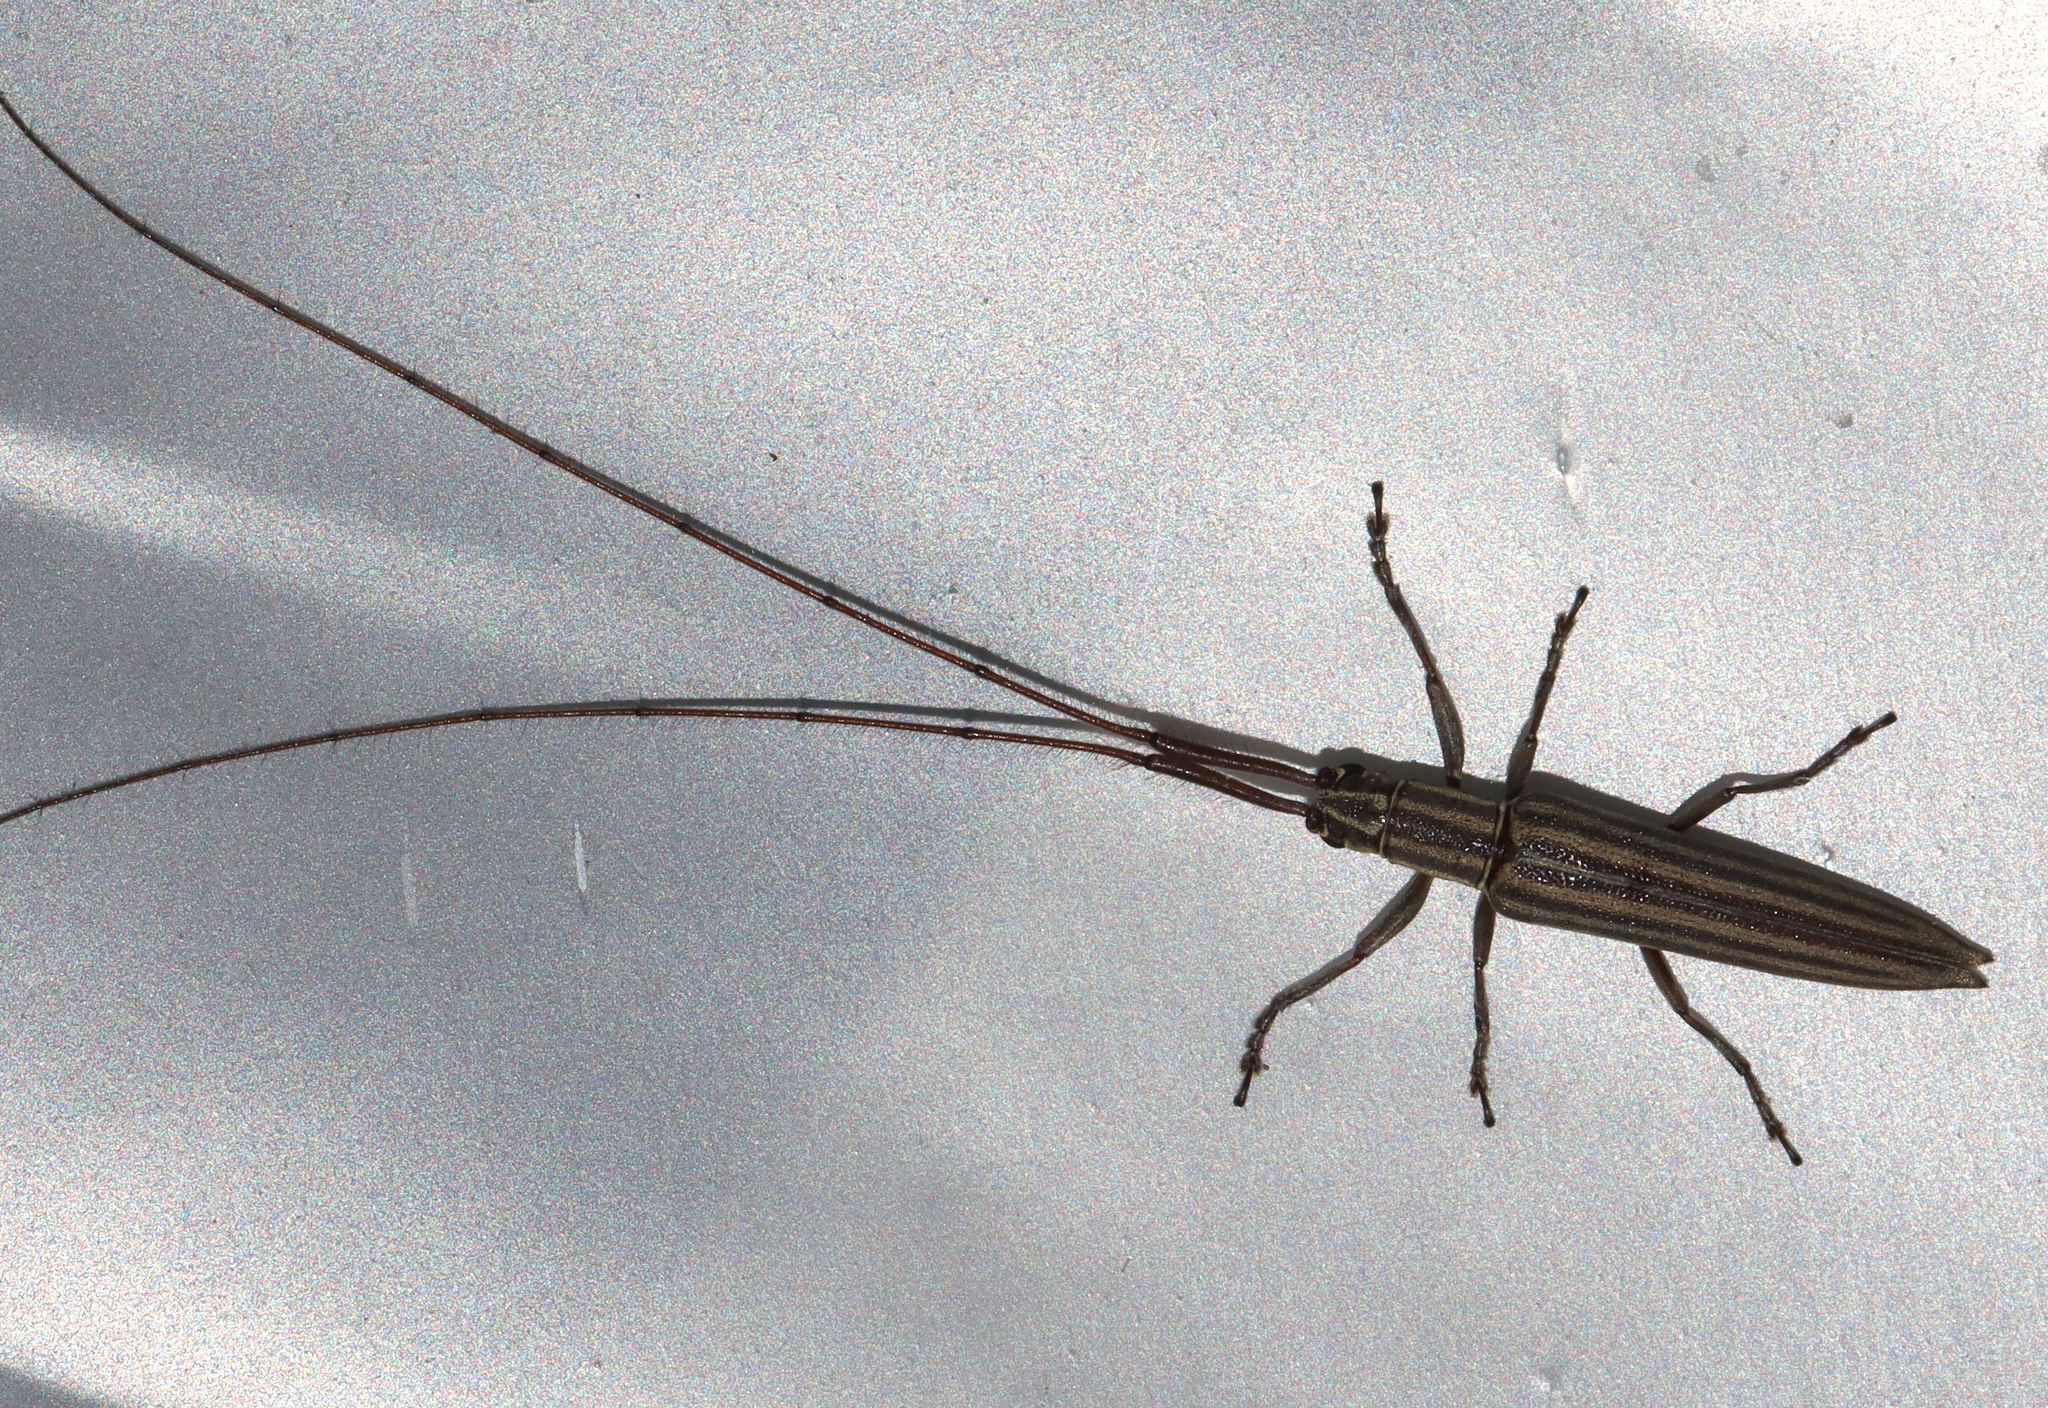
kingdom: Animalia
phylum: Arthropoda
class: Insecta
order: Coleoptera
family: Cerambycidae
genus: Hippopsis
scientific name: Hippopsis
